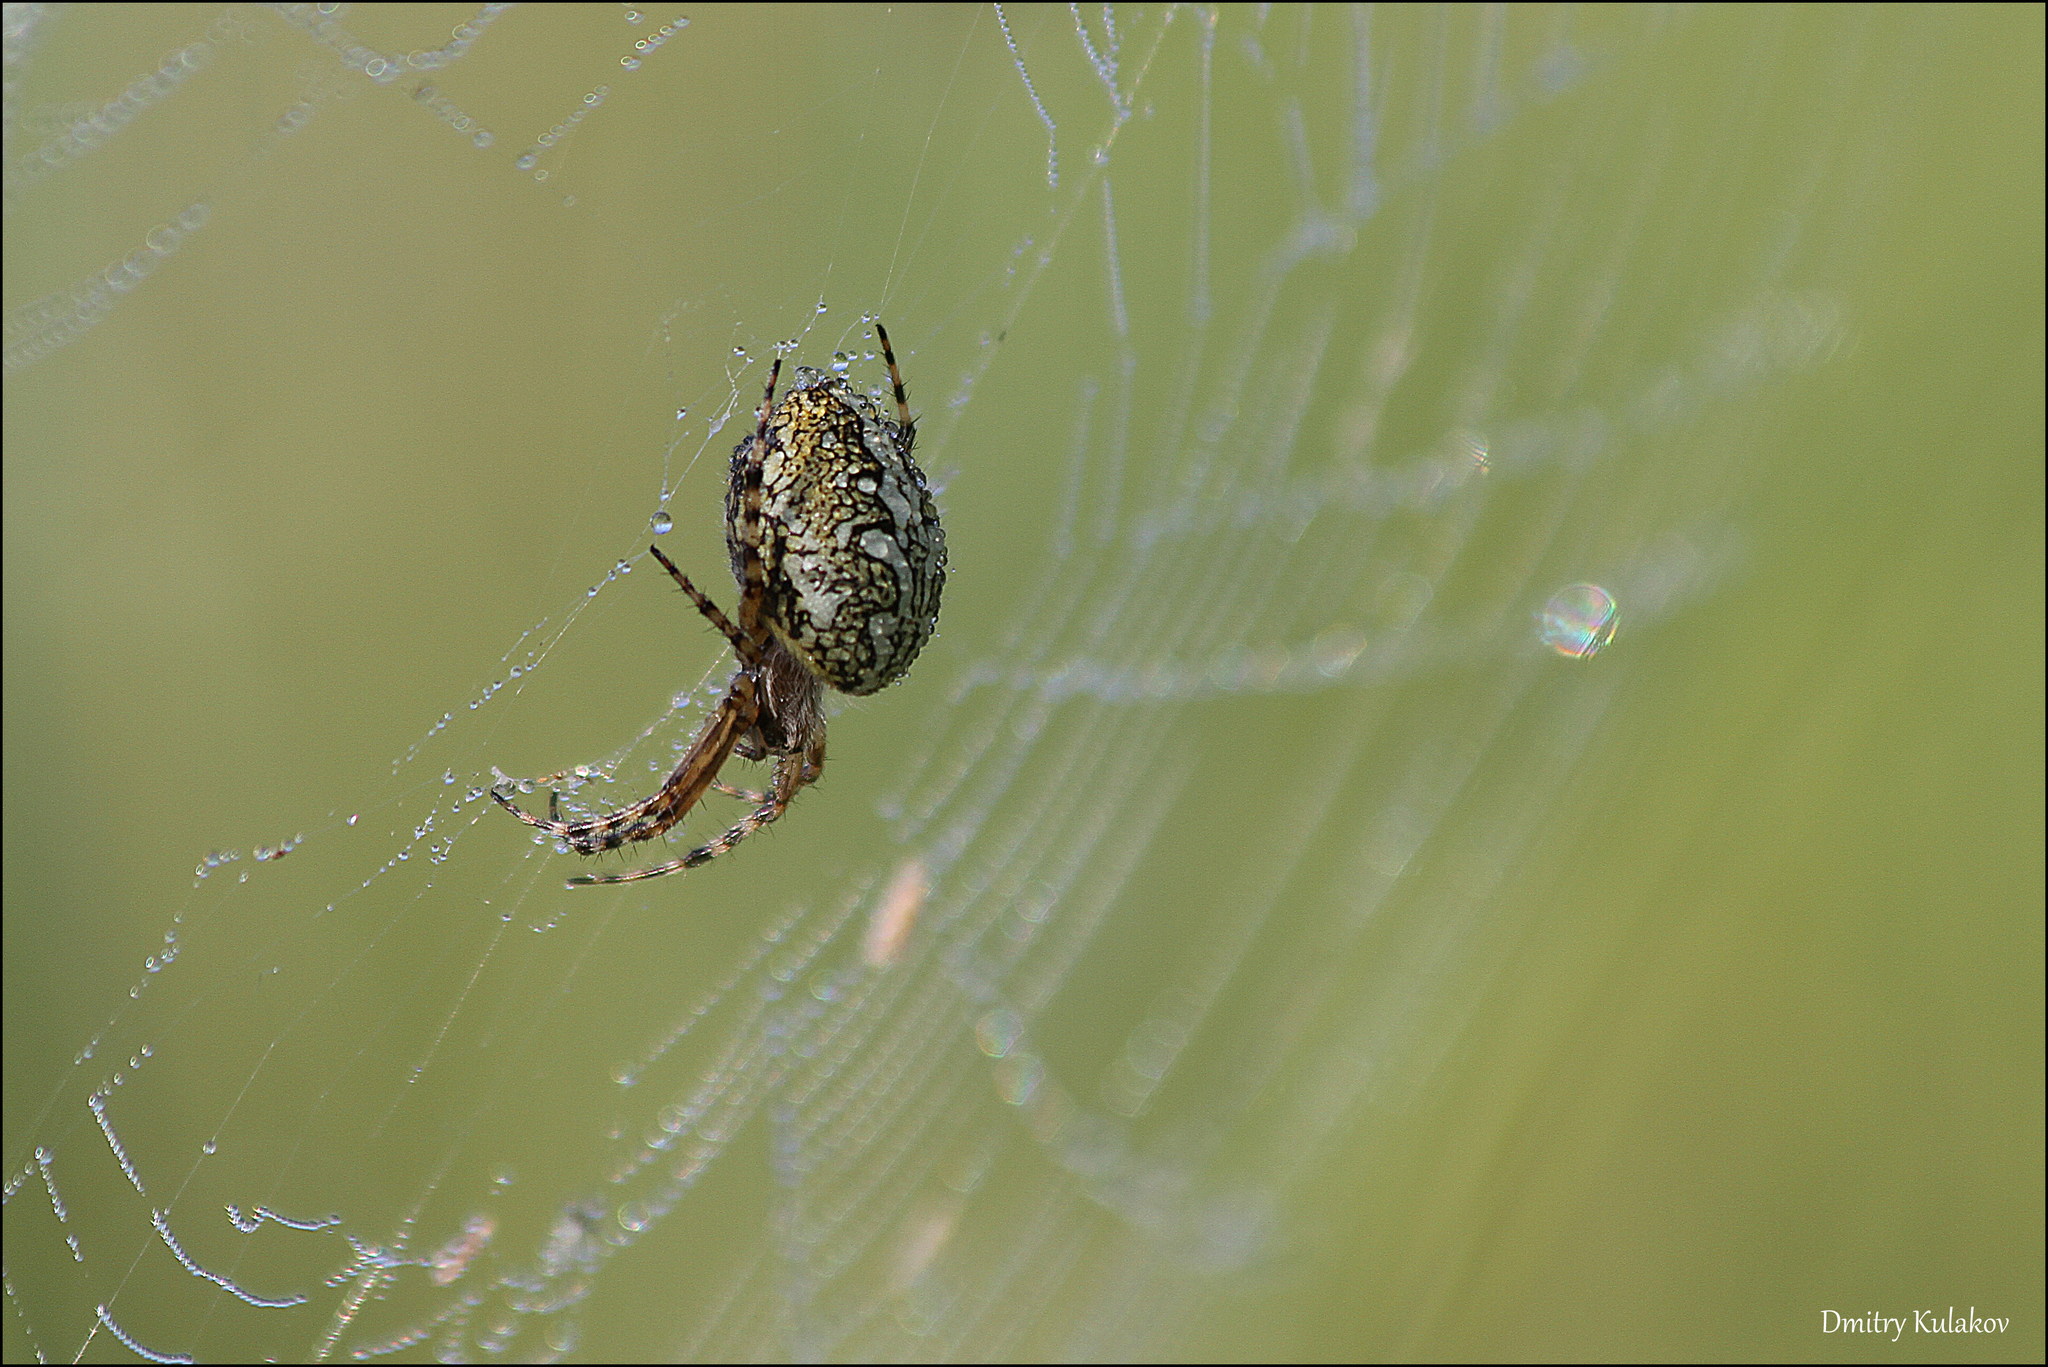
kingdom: Animalia
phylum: Arthropoda
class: Arachnida
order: Araneae
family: Araneidae
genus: Aculepeira
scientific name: Aculepeira ceropegia
